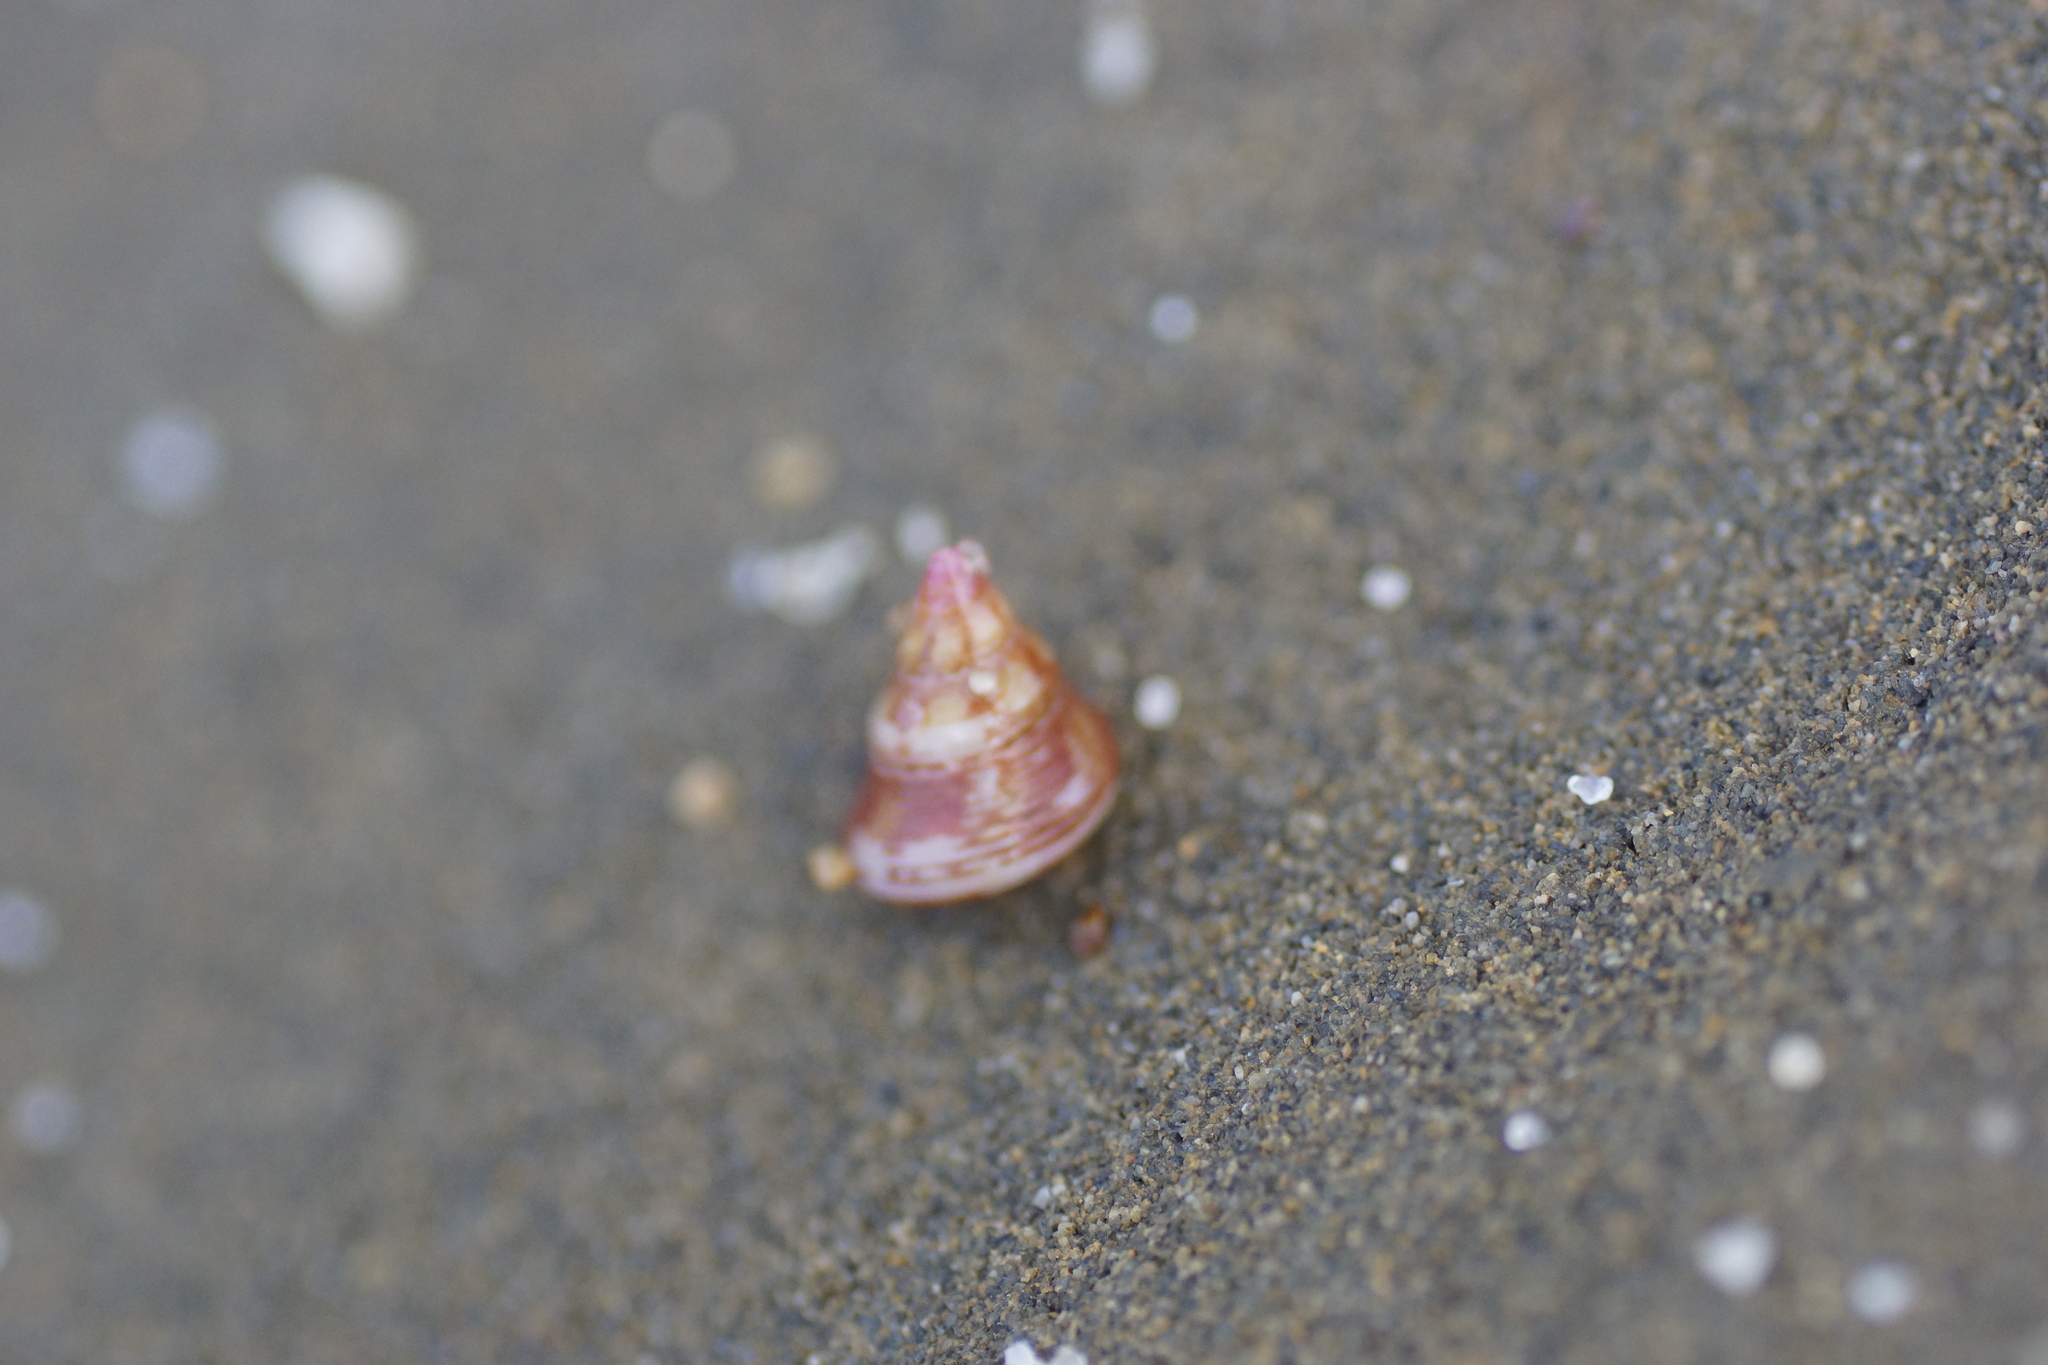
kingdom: Animalia
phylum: Mollusca
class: Gastropoda
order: Trochida
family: Trochidae
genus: Prothalotia
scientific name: Prothalotia ramburi
